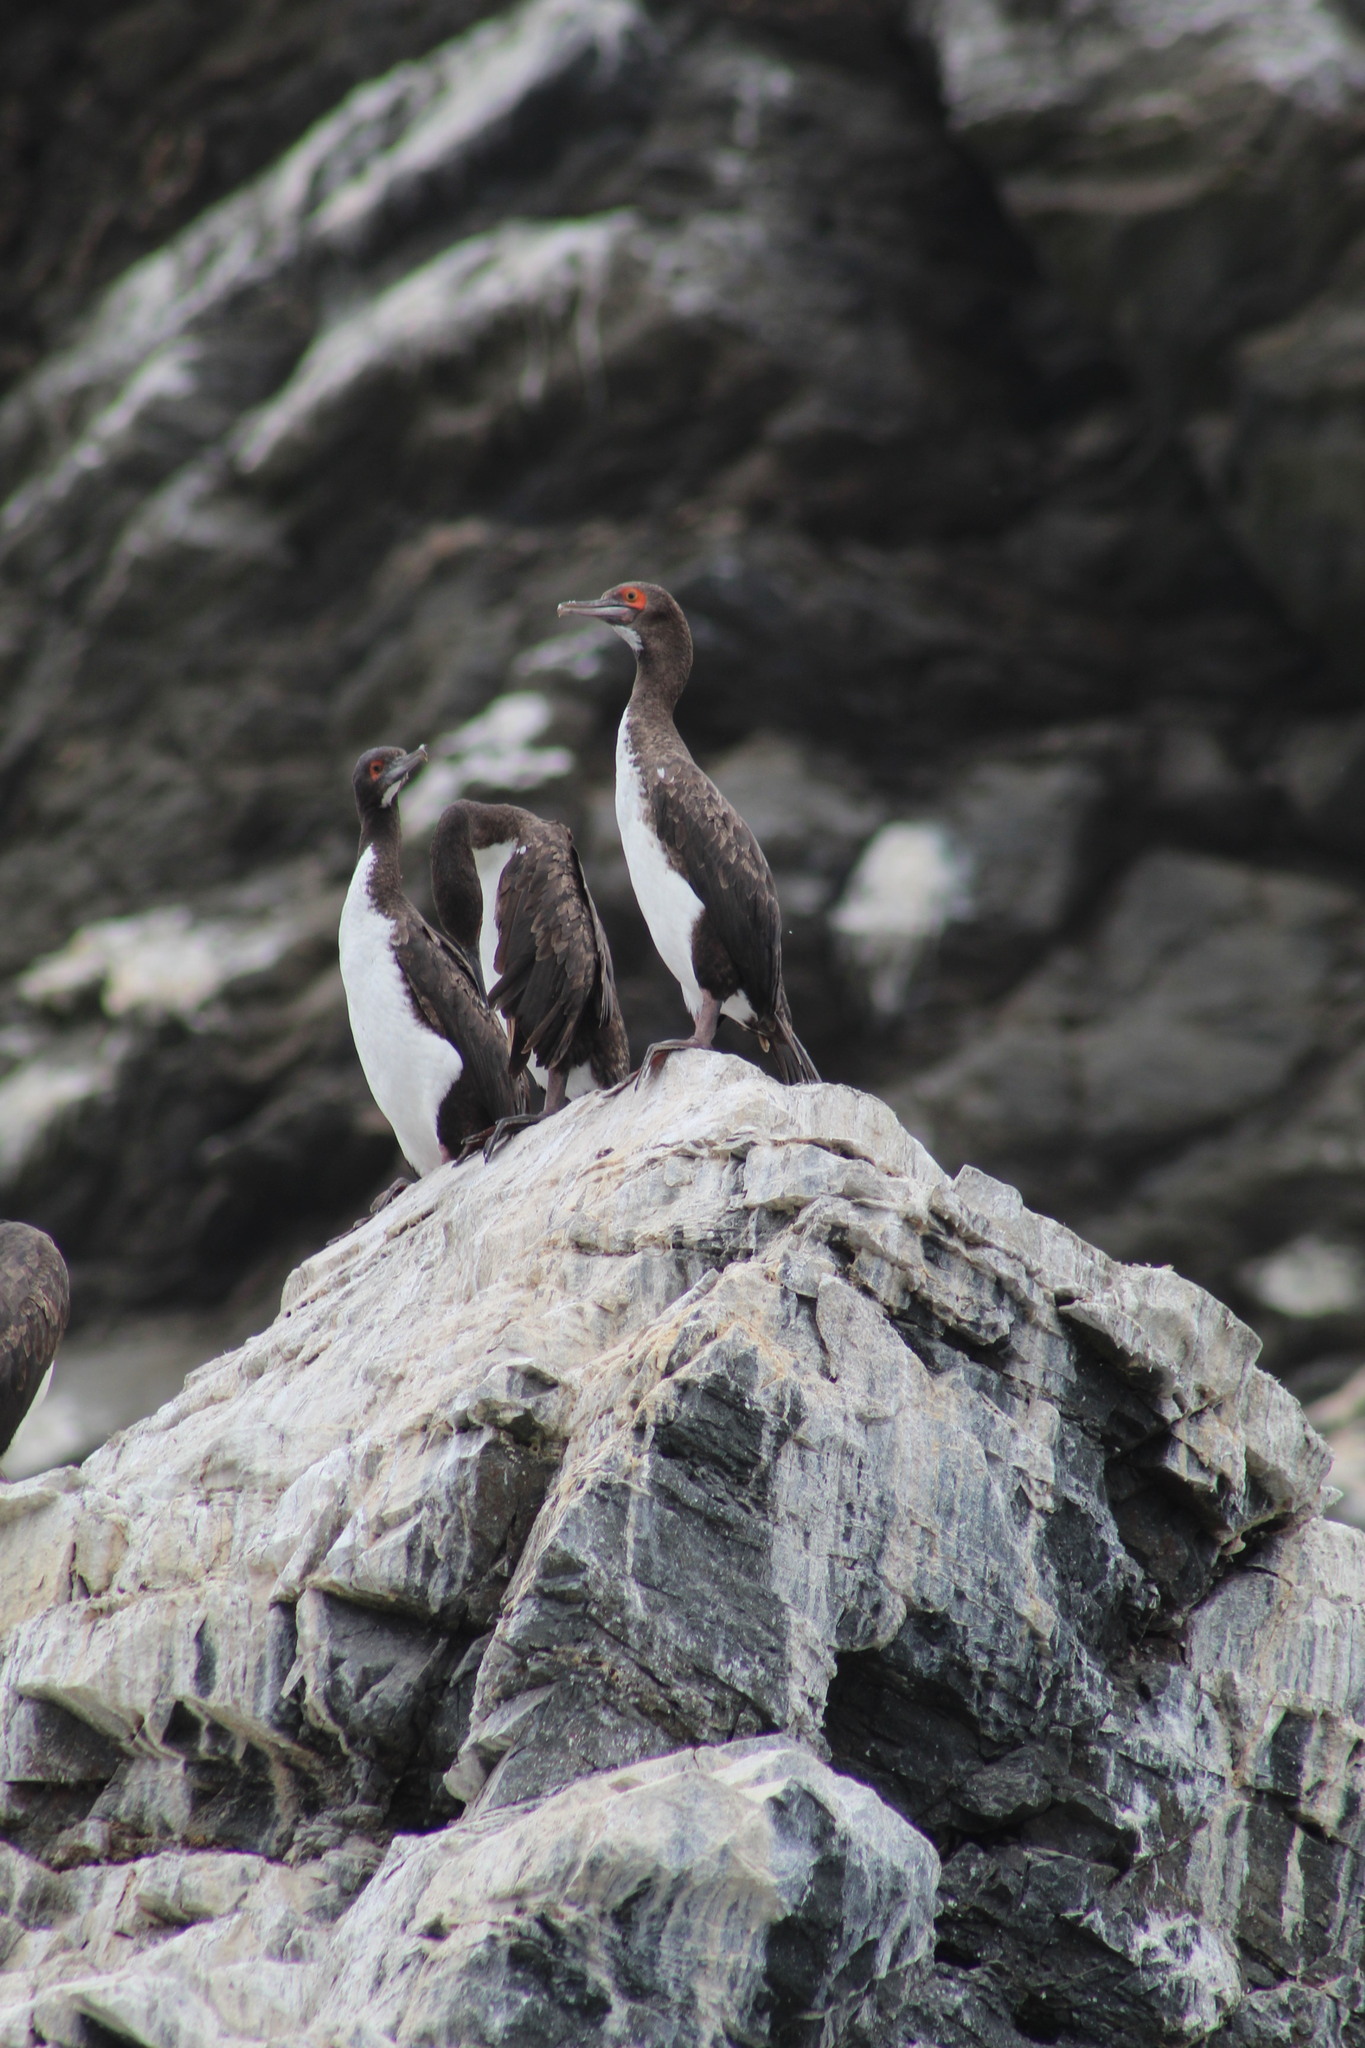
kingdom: Animalia
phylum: Chordata
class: Aves
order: Suliformes
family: Phalacrocoracidae
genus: Leucocarbo
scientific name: Leucocarbo bougainvillii
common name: Guanay cormorant
